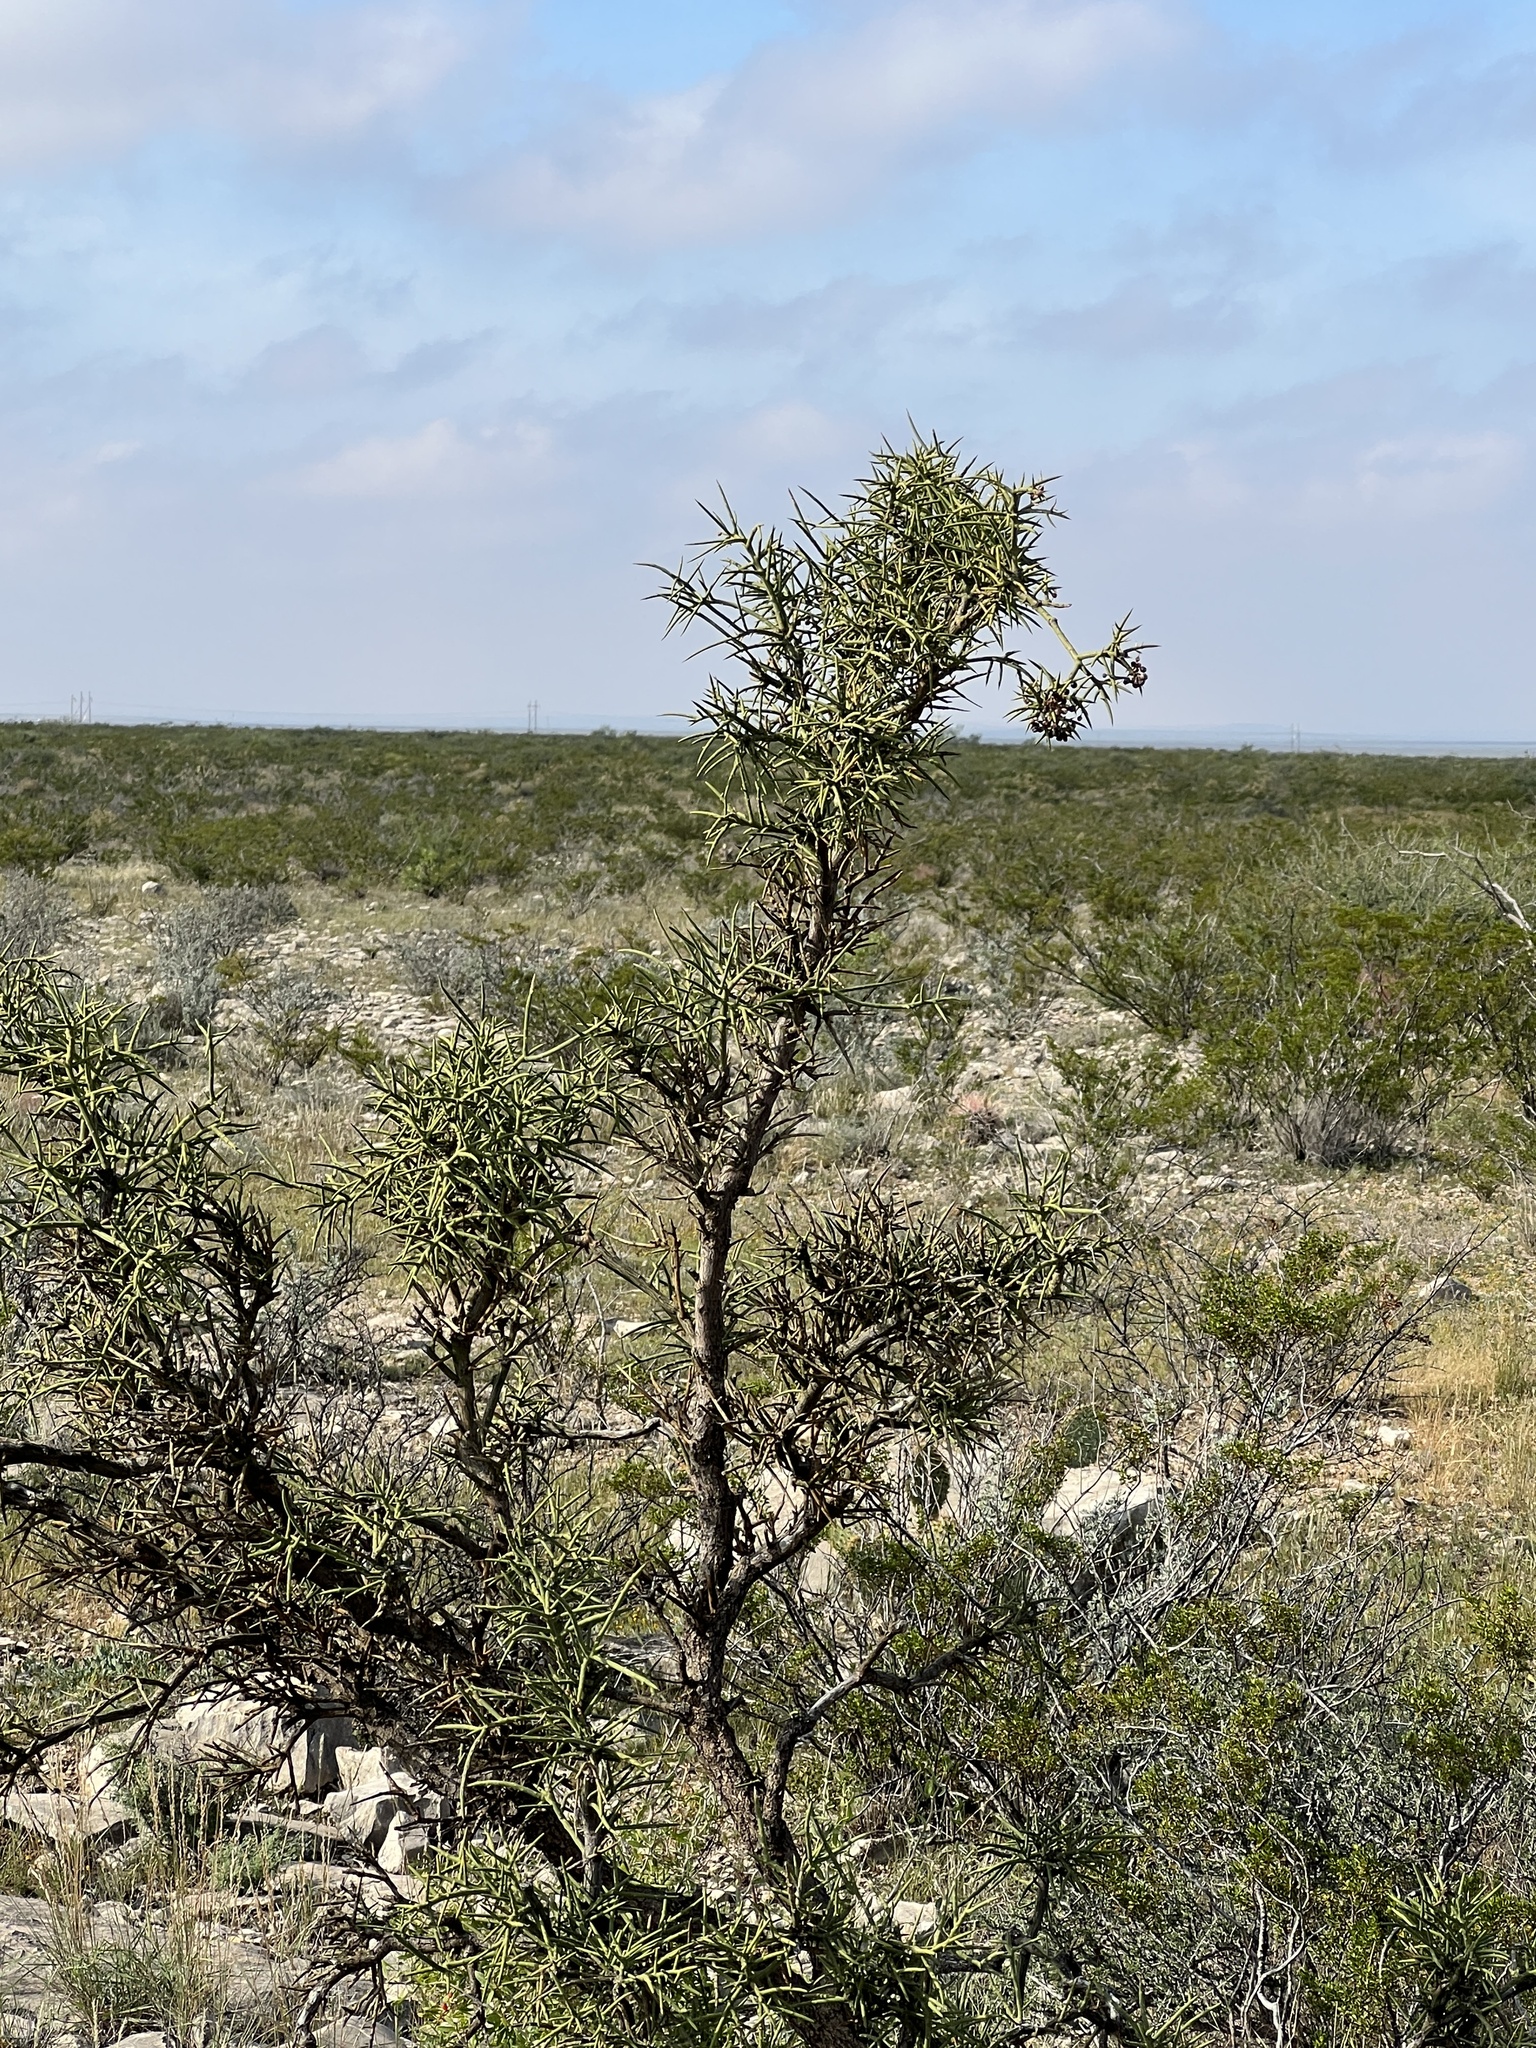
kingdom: Plantae
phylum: Tracheophyta
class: Magnoliopsida
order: Brassicales
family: Koeberliniaceae
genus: Koeberlinia
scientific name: Koeberlinia spinosa
